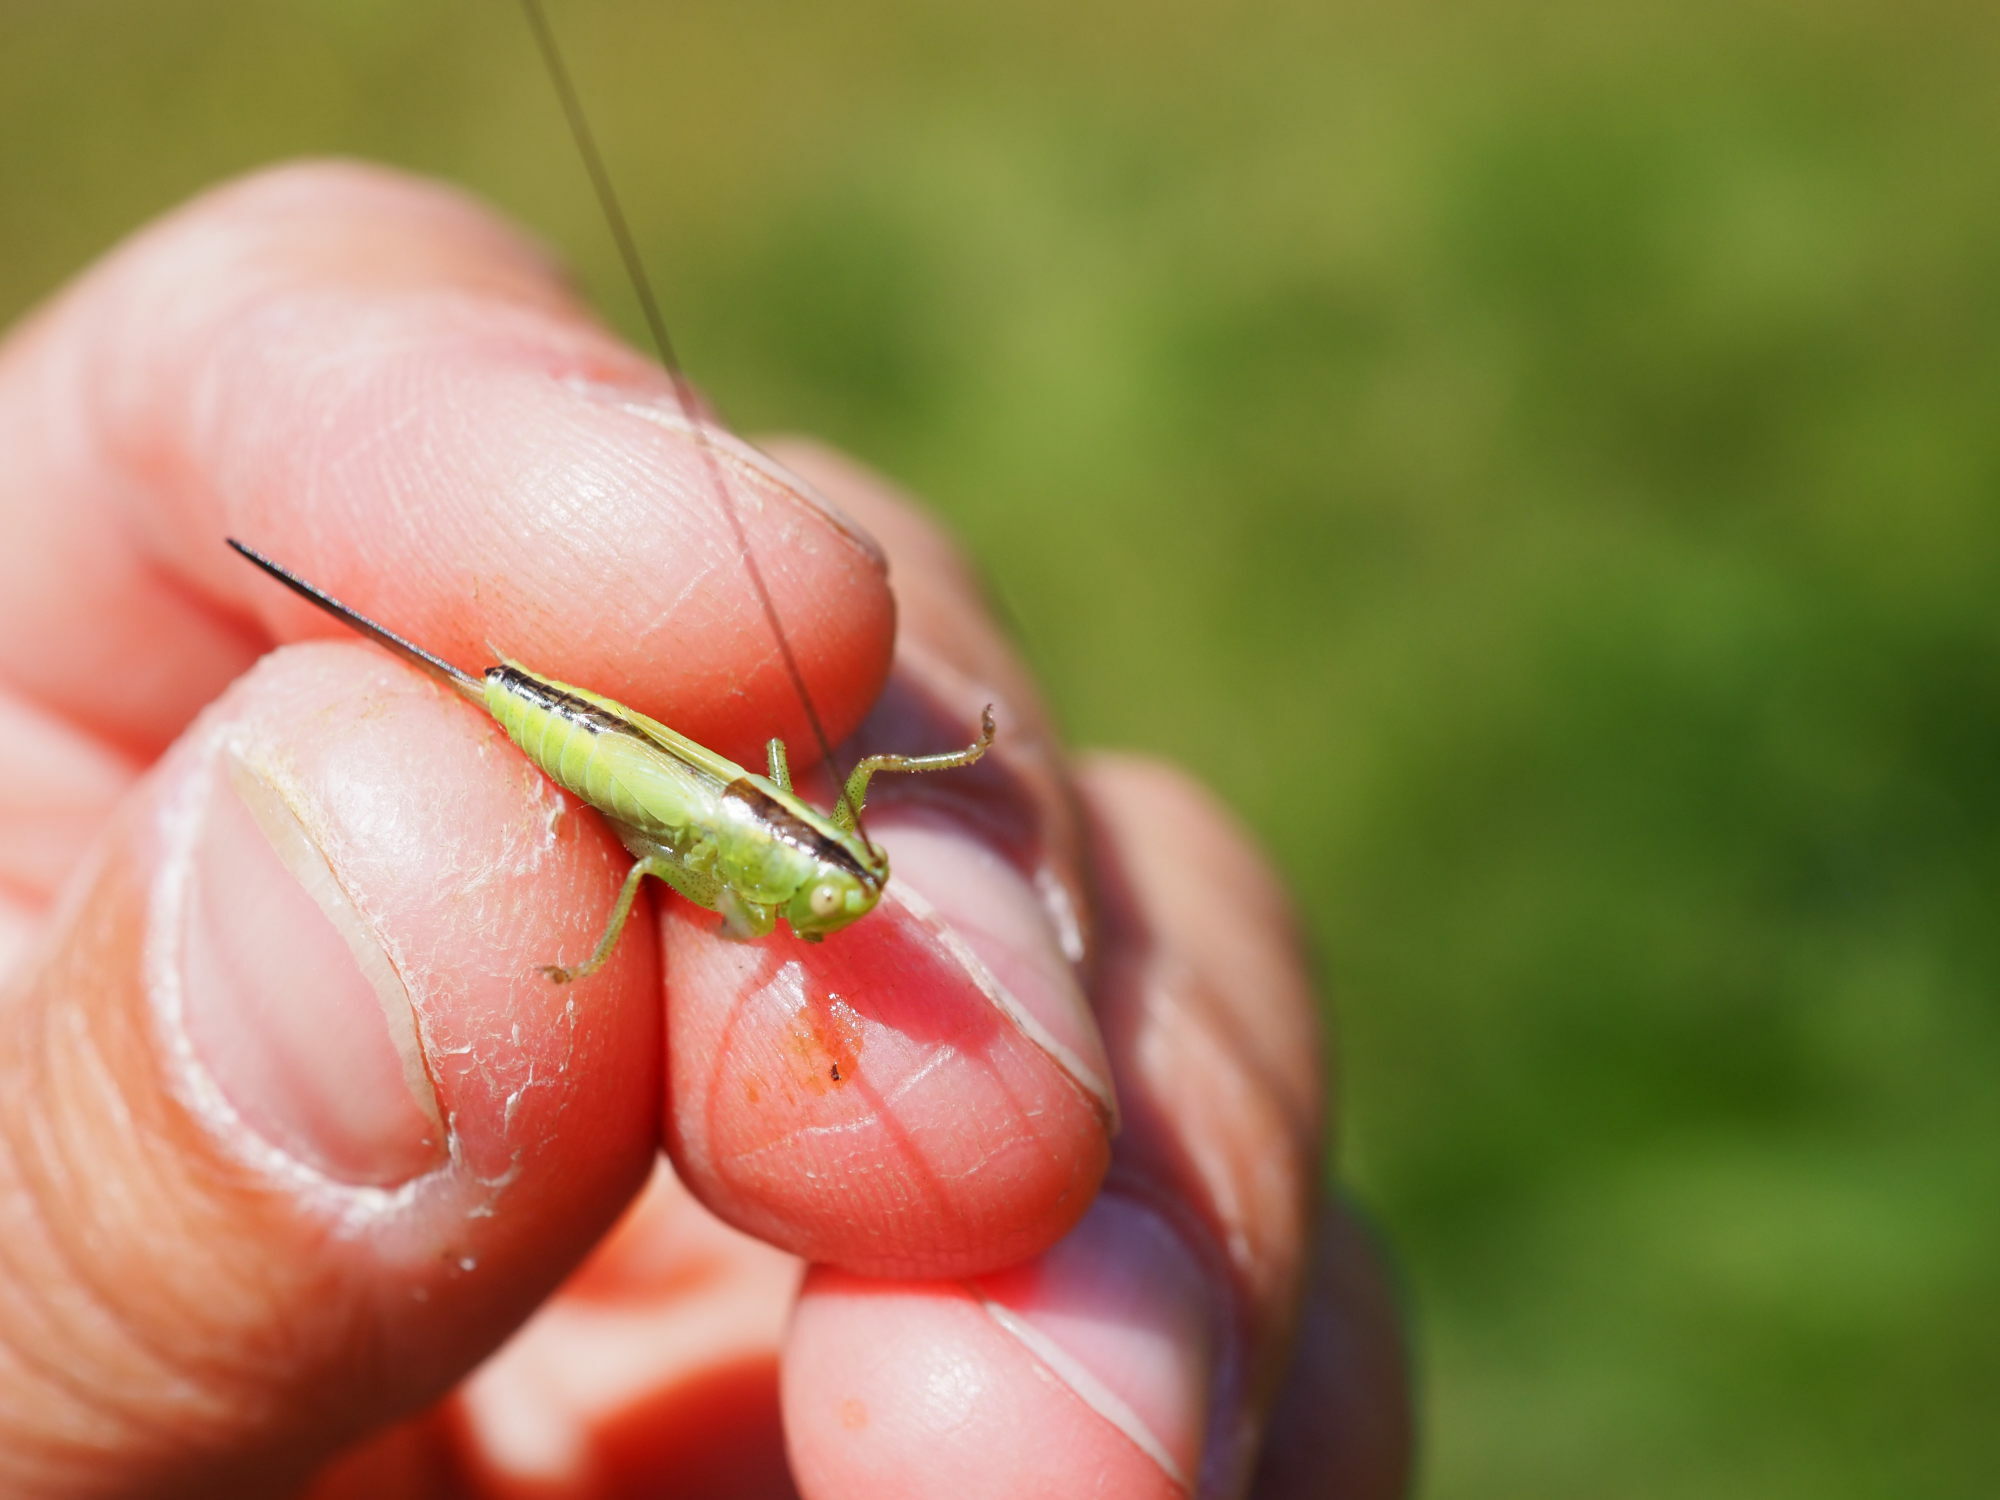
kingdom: Animalia
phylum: Arthropoda
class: Insecta
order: Orthoptera
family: Tettigoniidae
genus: Conocephalus
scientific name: Conocephalus fuscus
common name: Long-winged conehead
